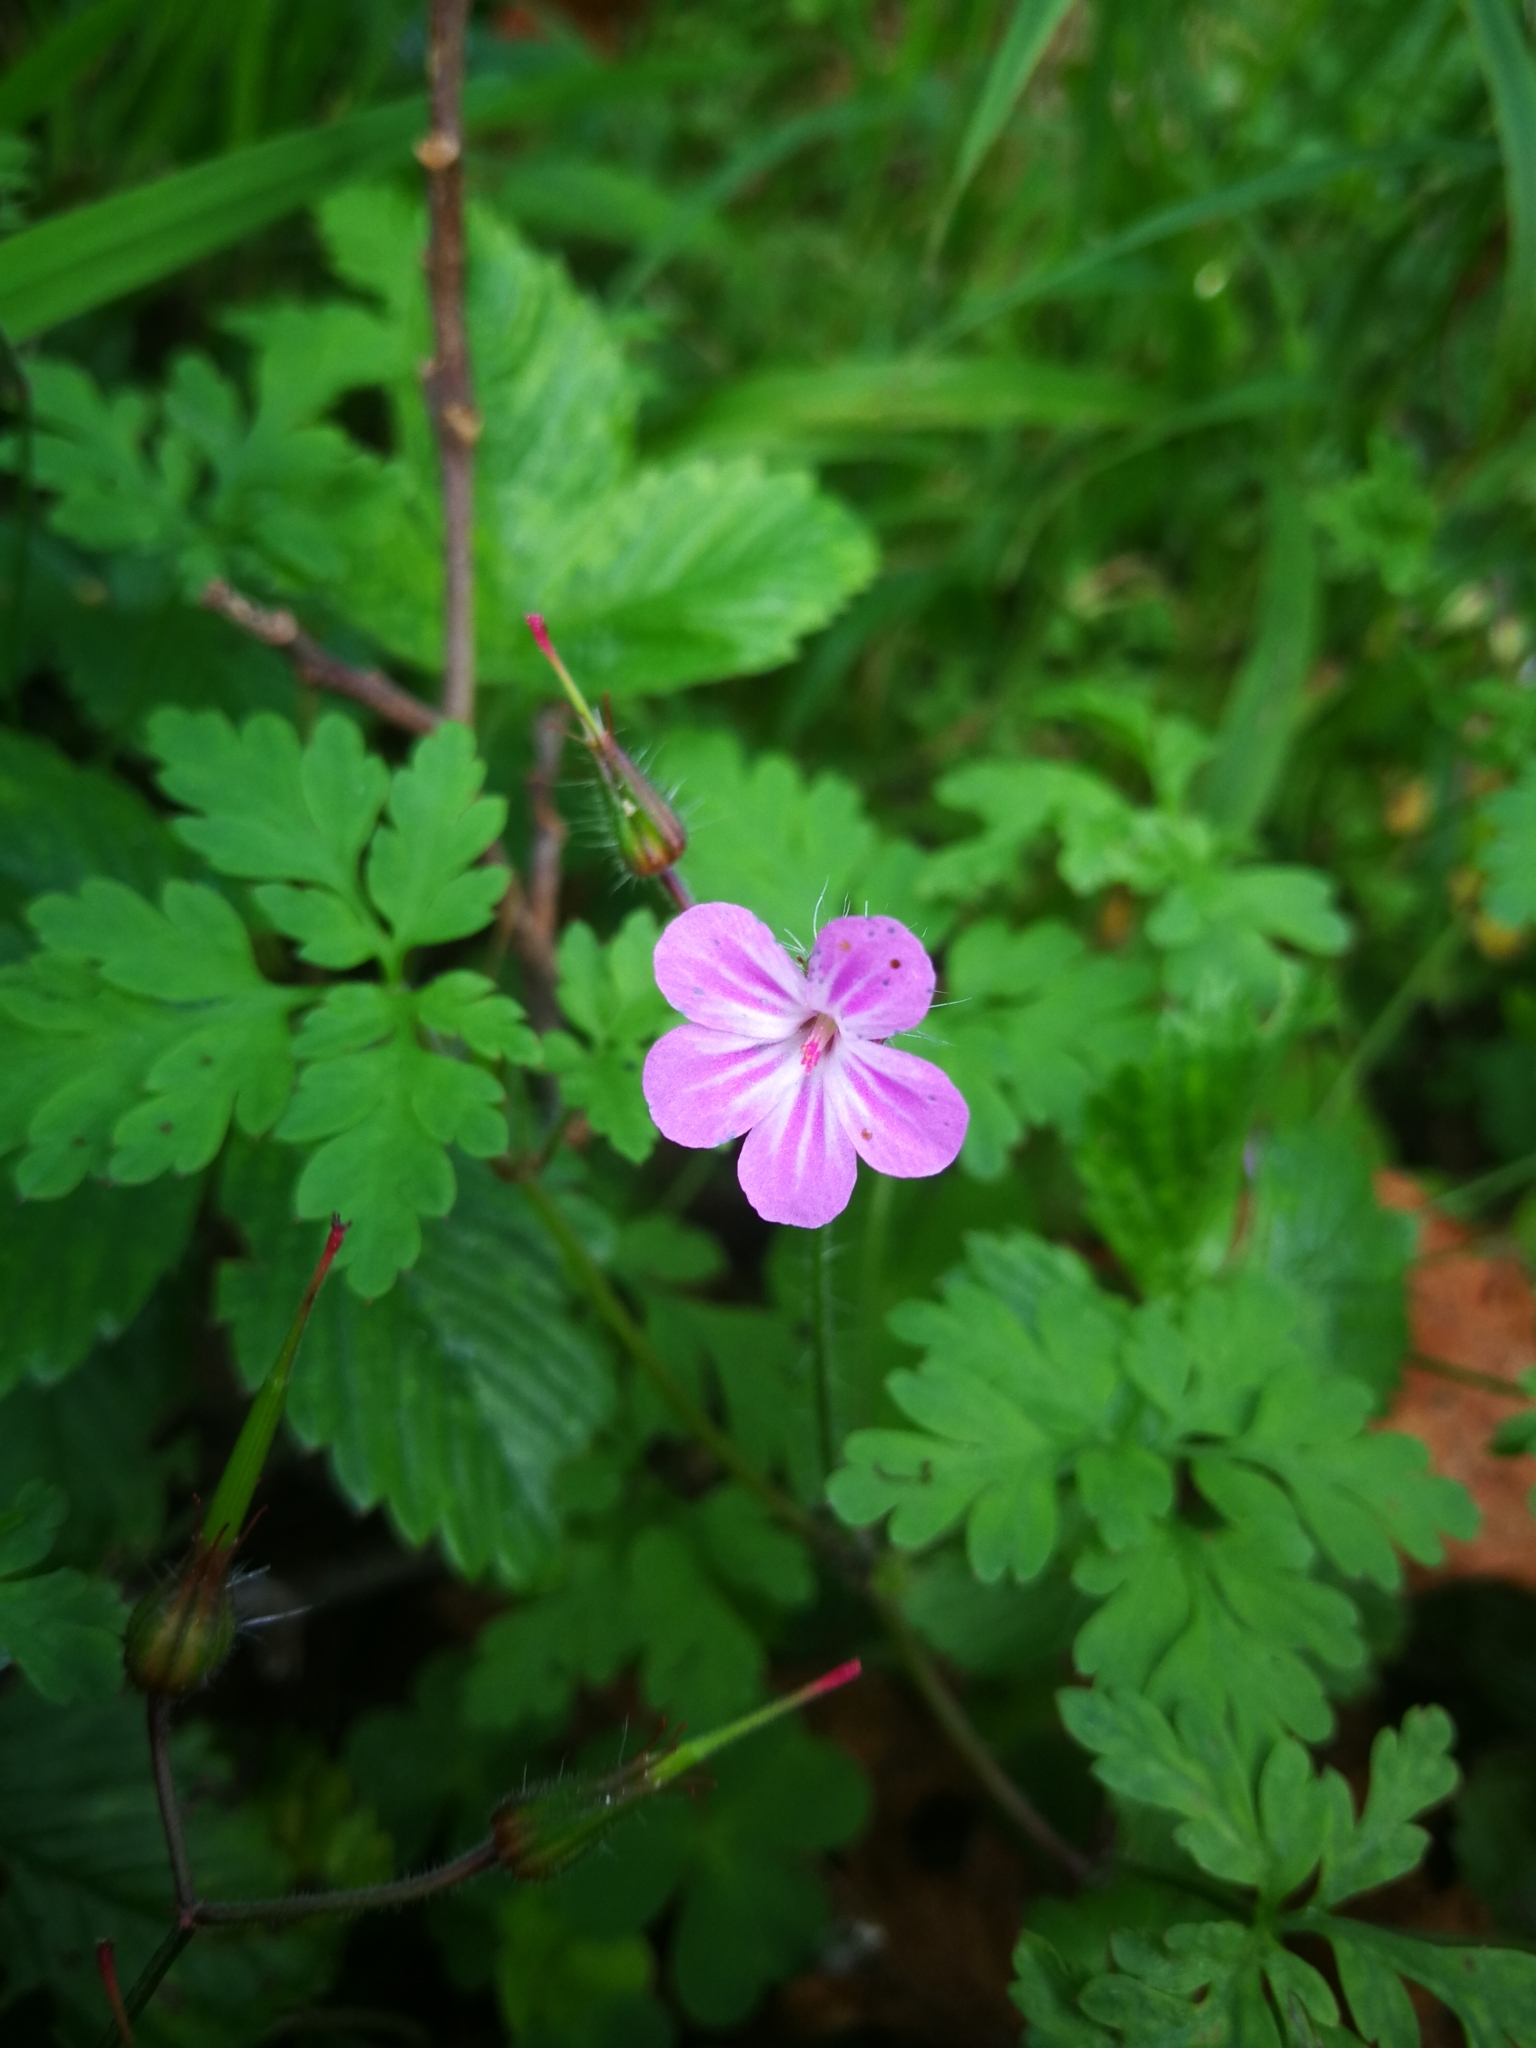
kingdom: Plantae
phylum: Tracheophyta
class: Magnoliopsida
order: Geraniales
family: Geraniaceae
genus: Geranium
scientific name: Geranium robertianum
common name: Herb-robert
